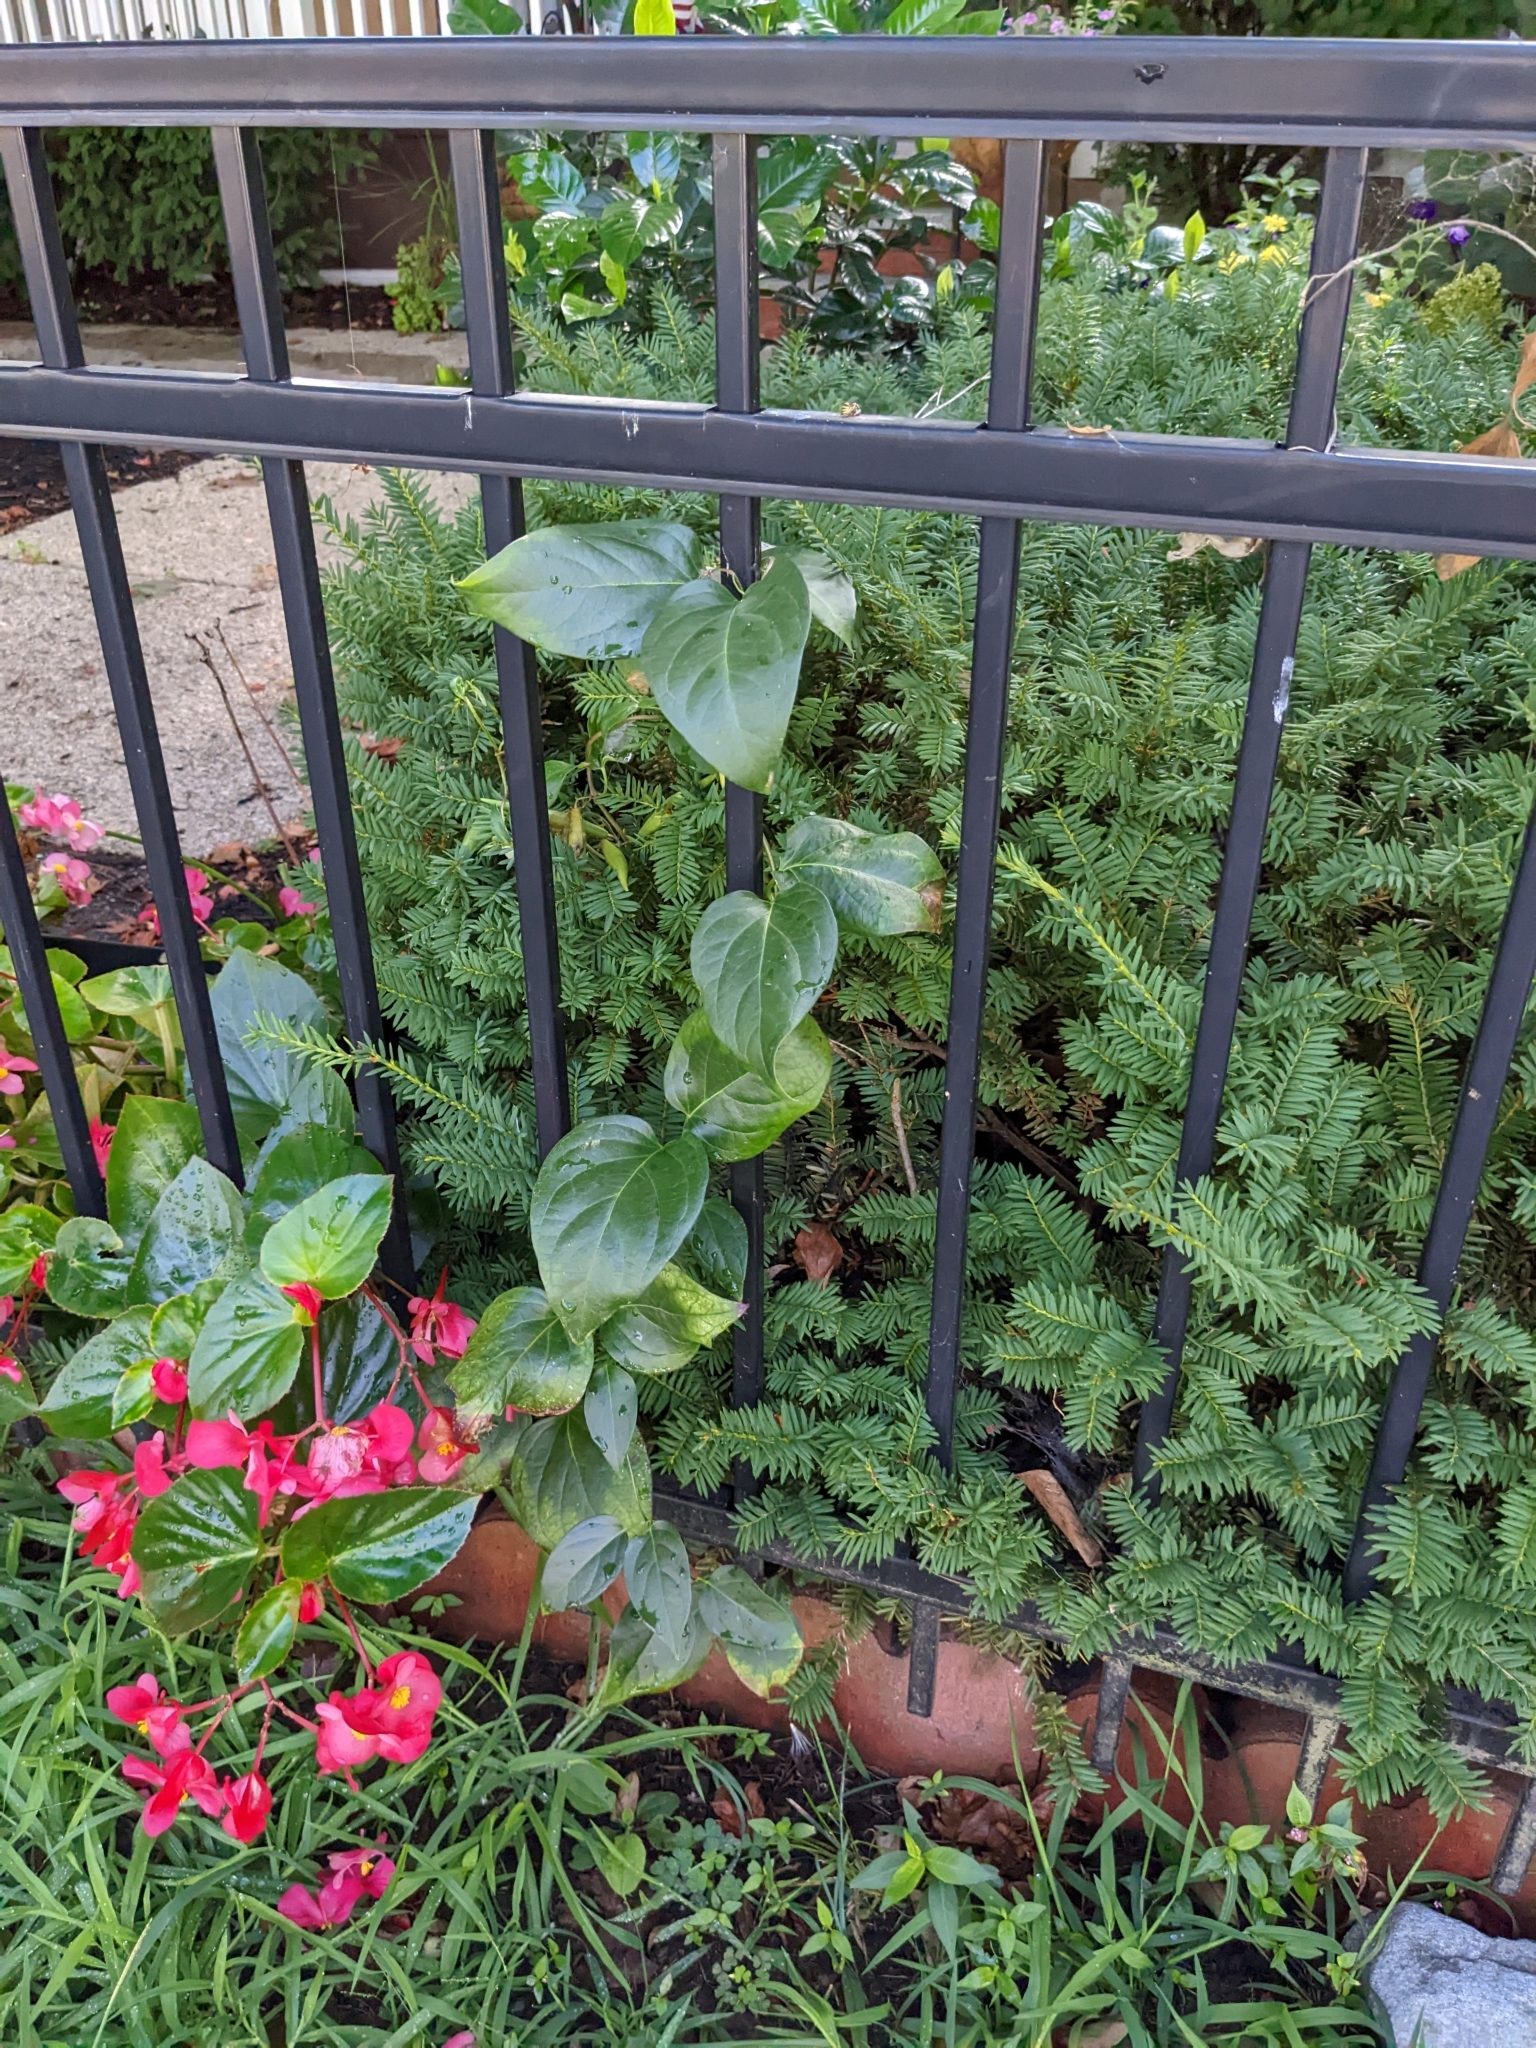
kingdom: Plantae
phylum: Tracheophyta
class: Magnoliopsida
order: Gentianales
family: Apocynaceae
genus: Vincetoxicum
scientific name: Vincetoxicum nigrum
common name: Black swallow-wort
